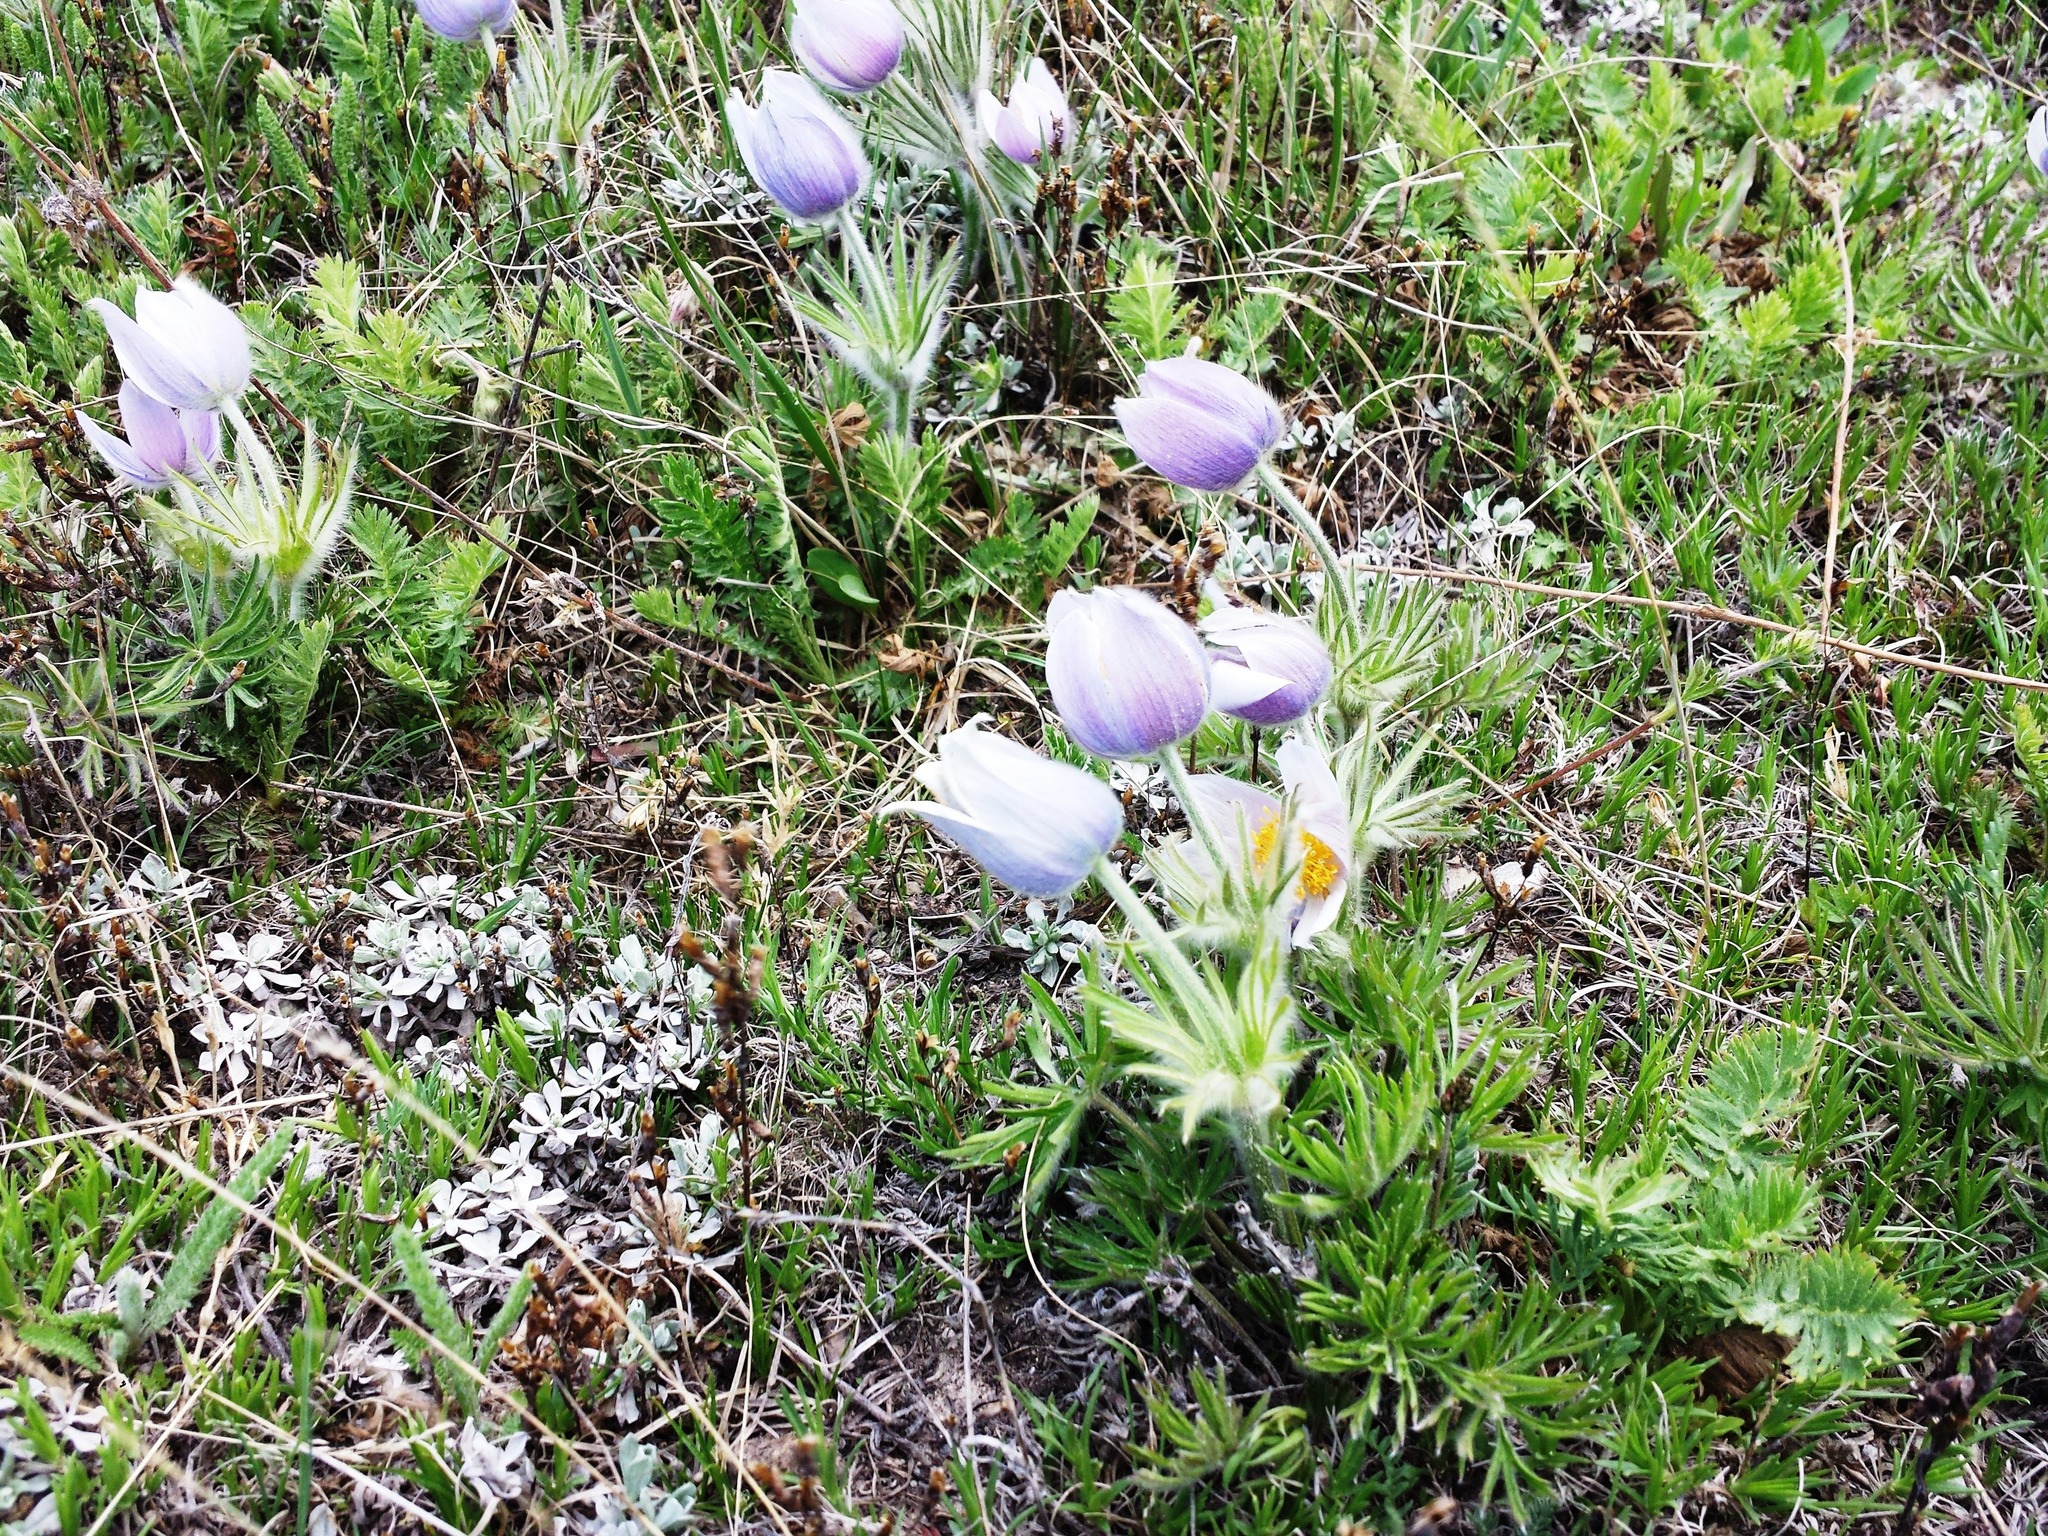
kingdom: Plantae
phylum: Tracheophyta
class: Magnoliopsida
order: Ranunculales
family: Ranunculaceae
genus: Pulsatilla
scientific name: Pulsatilla nuttalliana
